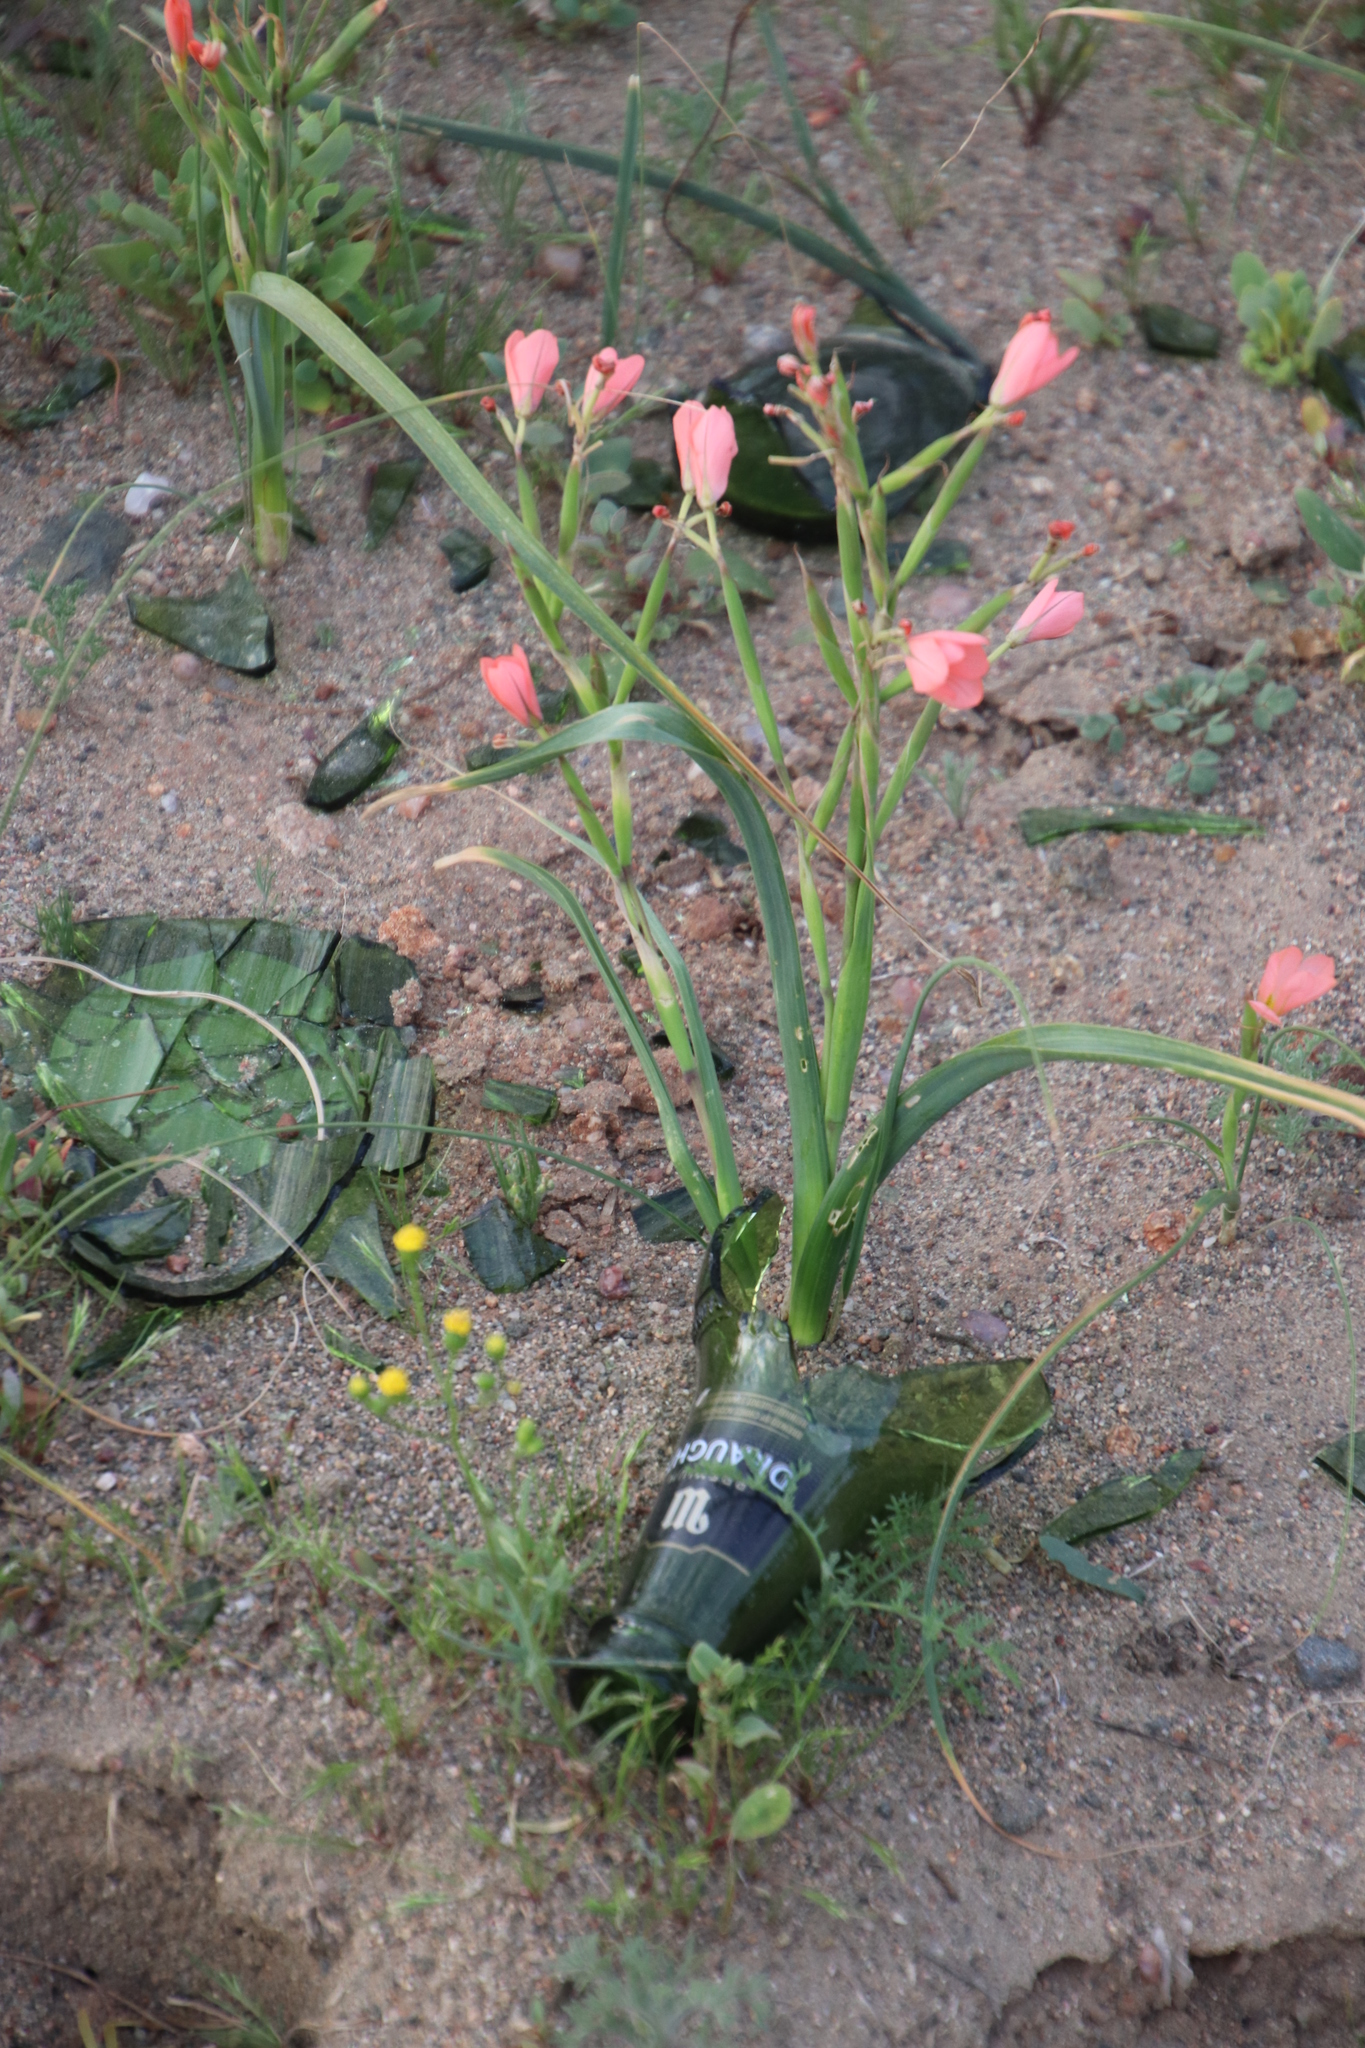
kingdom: Plantae
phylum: Tracheophyta
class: Liliopsida
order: Asparagales
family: Iridaceae
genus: Moraea
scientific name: Moraea miniata
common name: Two-leaf cape-tulip
